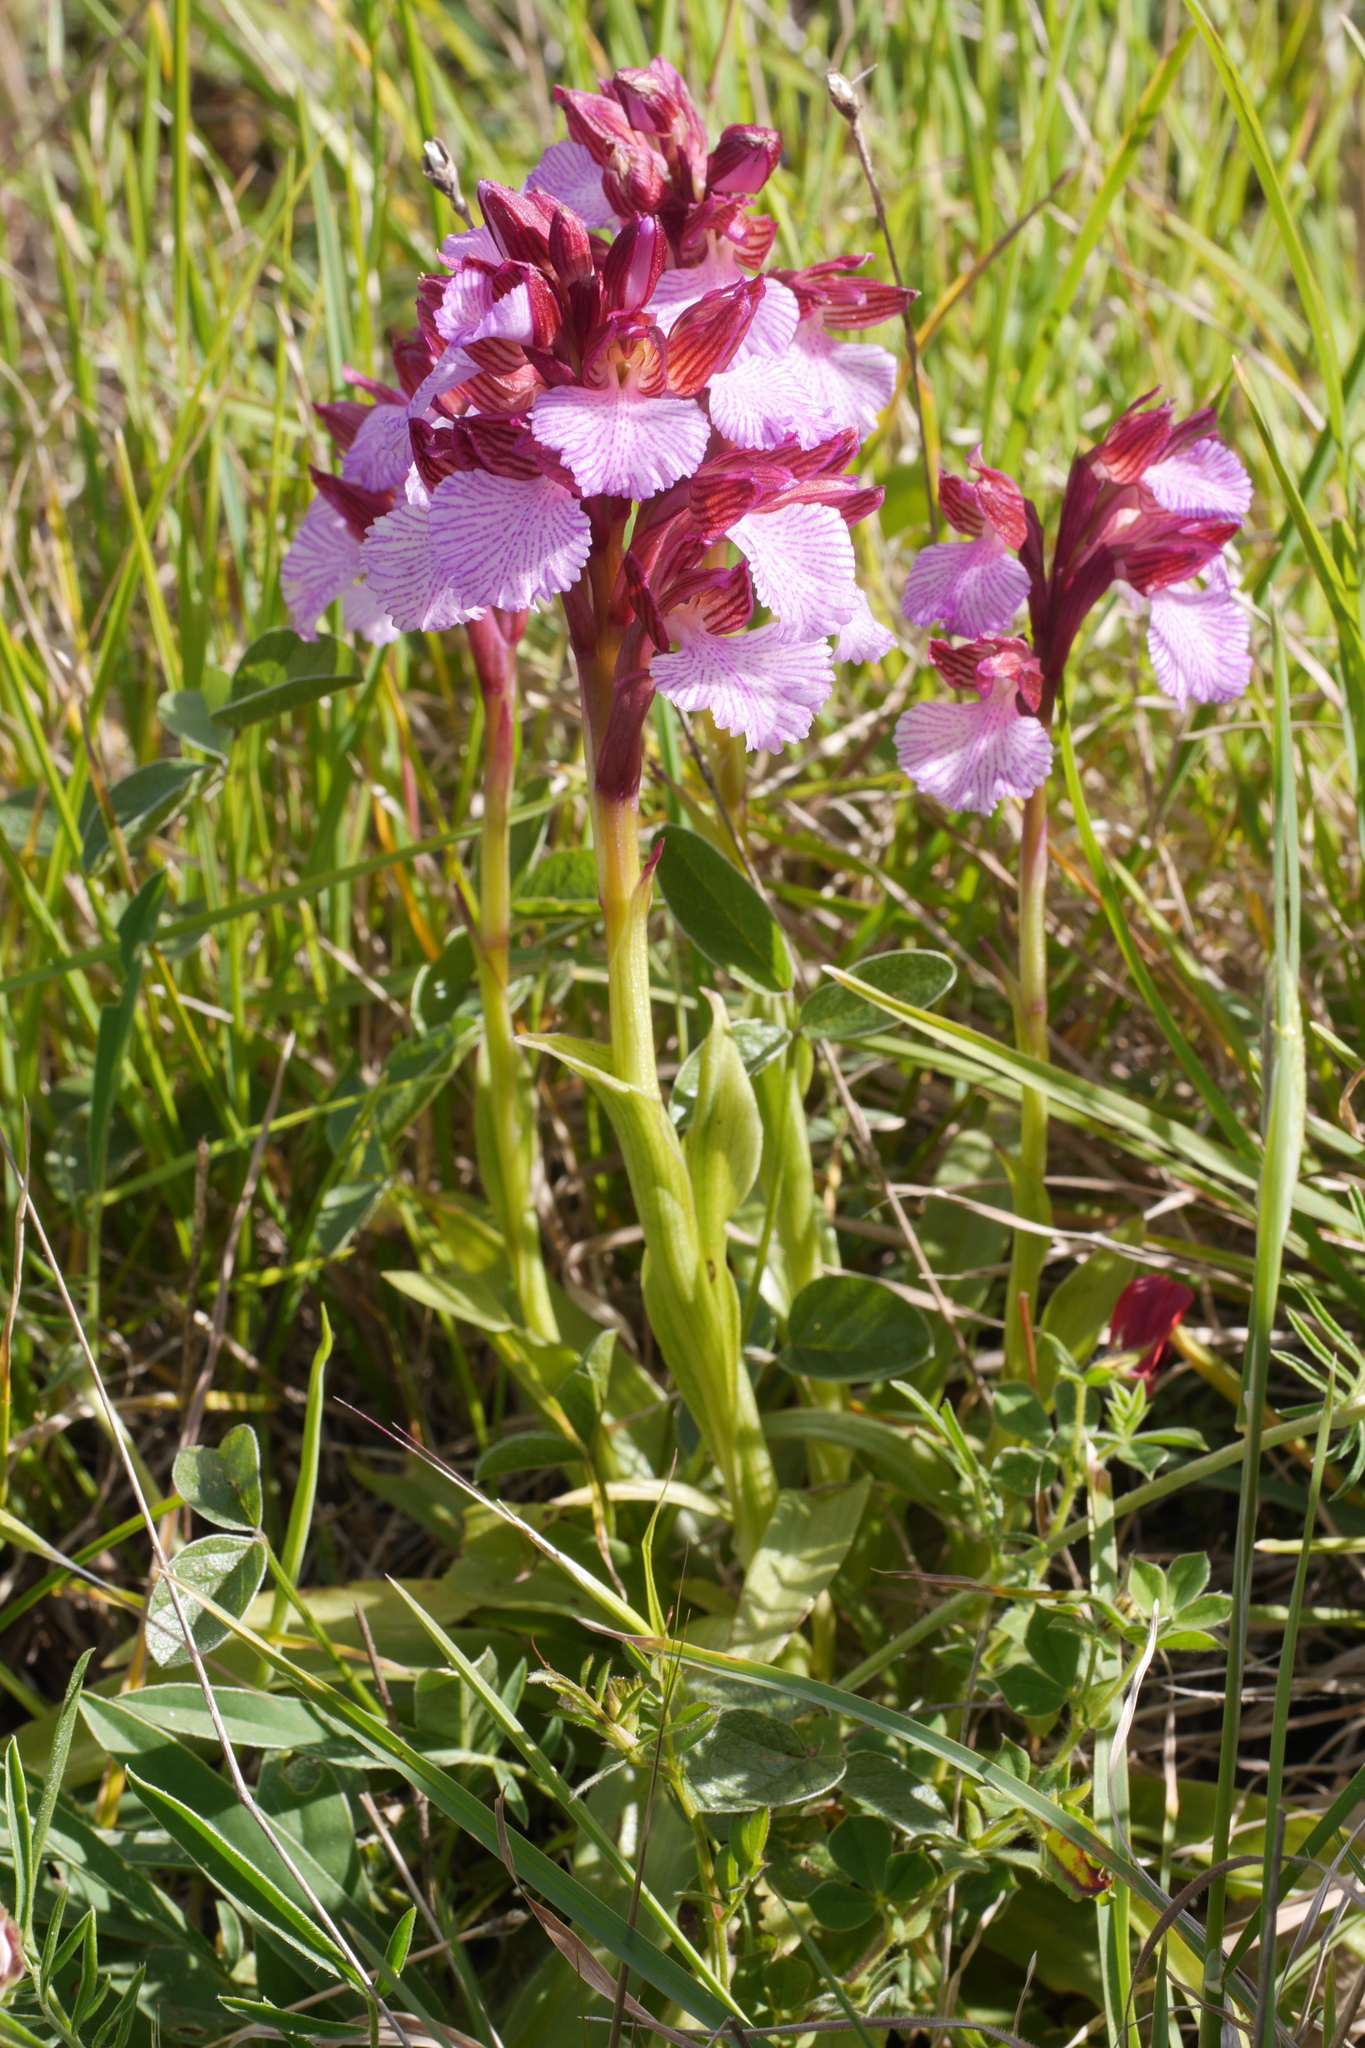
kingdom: Plantae
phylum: Tracheophyta
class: Liliopsida
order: Asparagales
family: Orchidaceae
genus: Anacamptis
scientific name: Anacamptis papilionacea
